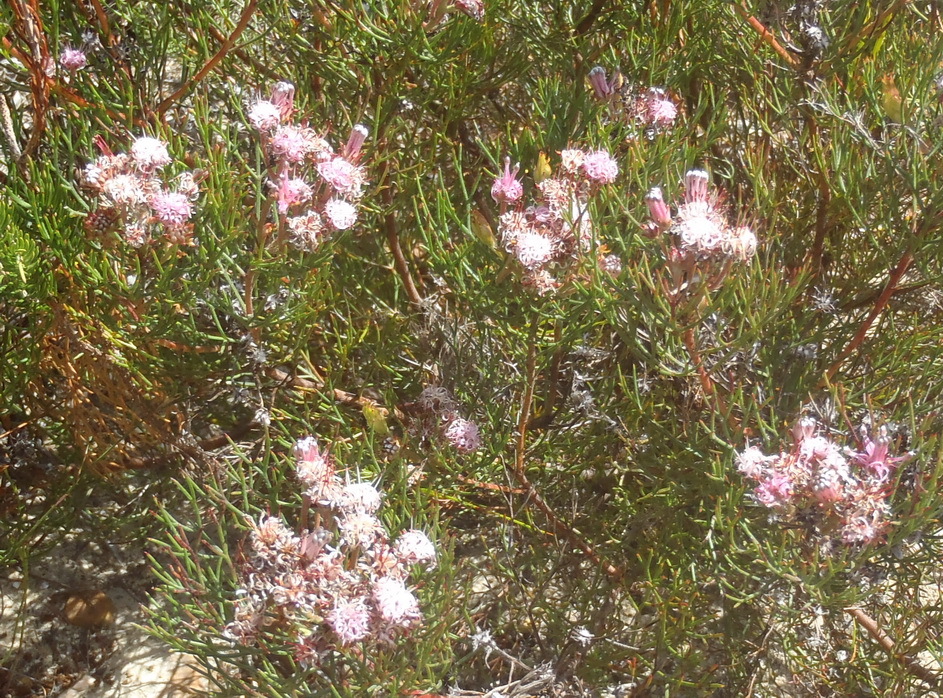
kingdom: Plantae
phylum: Tracheophyta
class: Magnoliopsida
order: Proteales
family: Proteaceae
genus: Serruria
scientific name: Serruria fasciflora
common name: Common pin spiderhead
